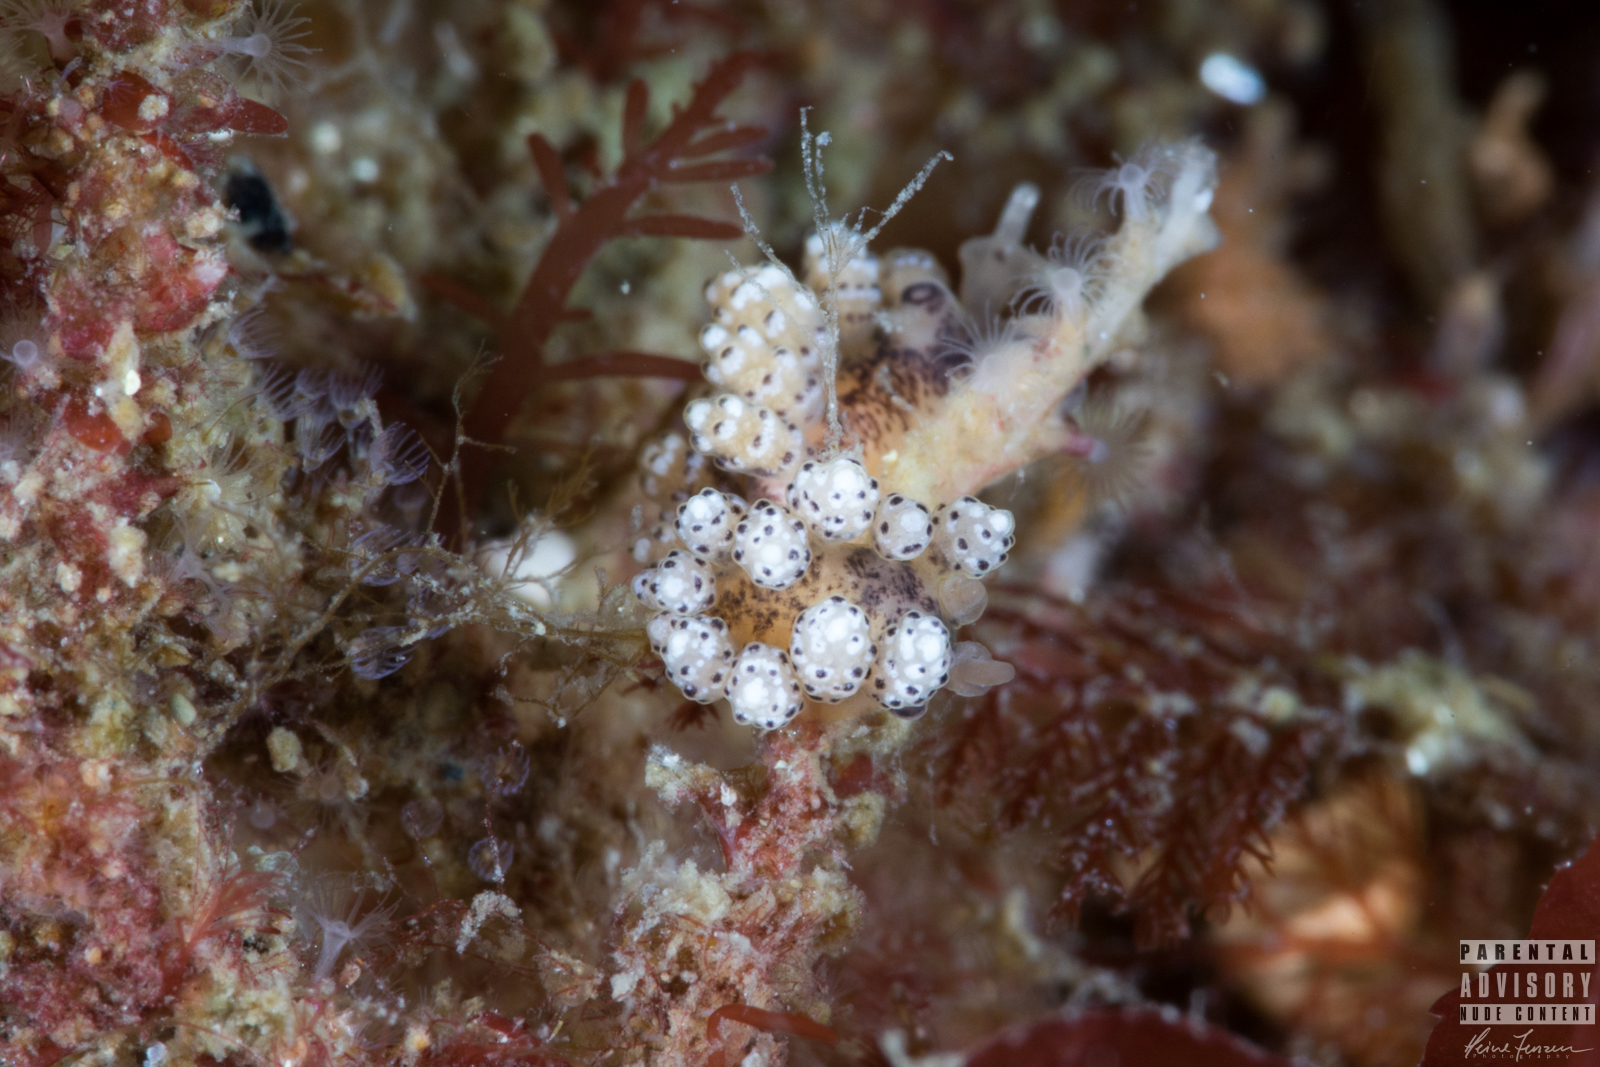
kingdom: Animalia
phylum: Mollusca
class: Gastropoda
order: Nudibranchia
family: Dotidae
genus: Doto
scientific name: Doto coronata
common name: Coronate doto
